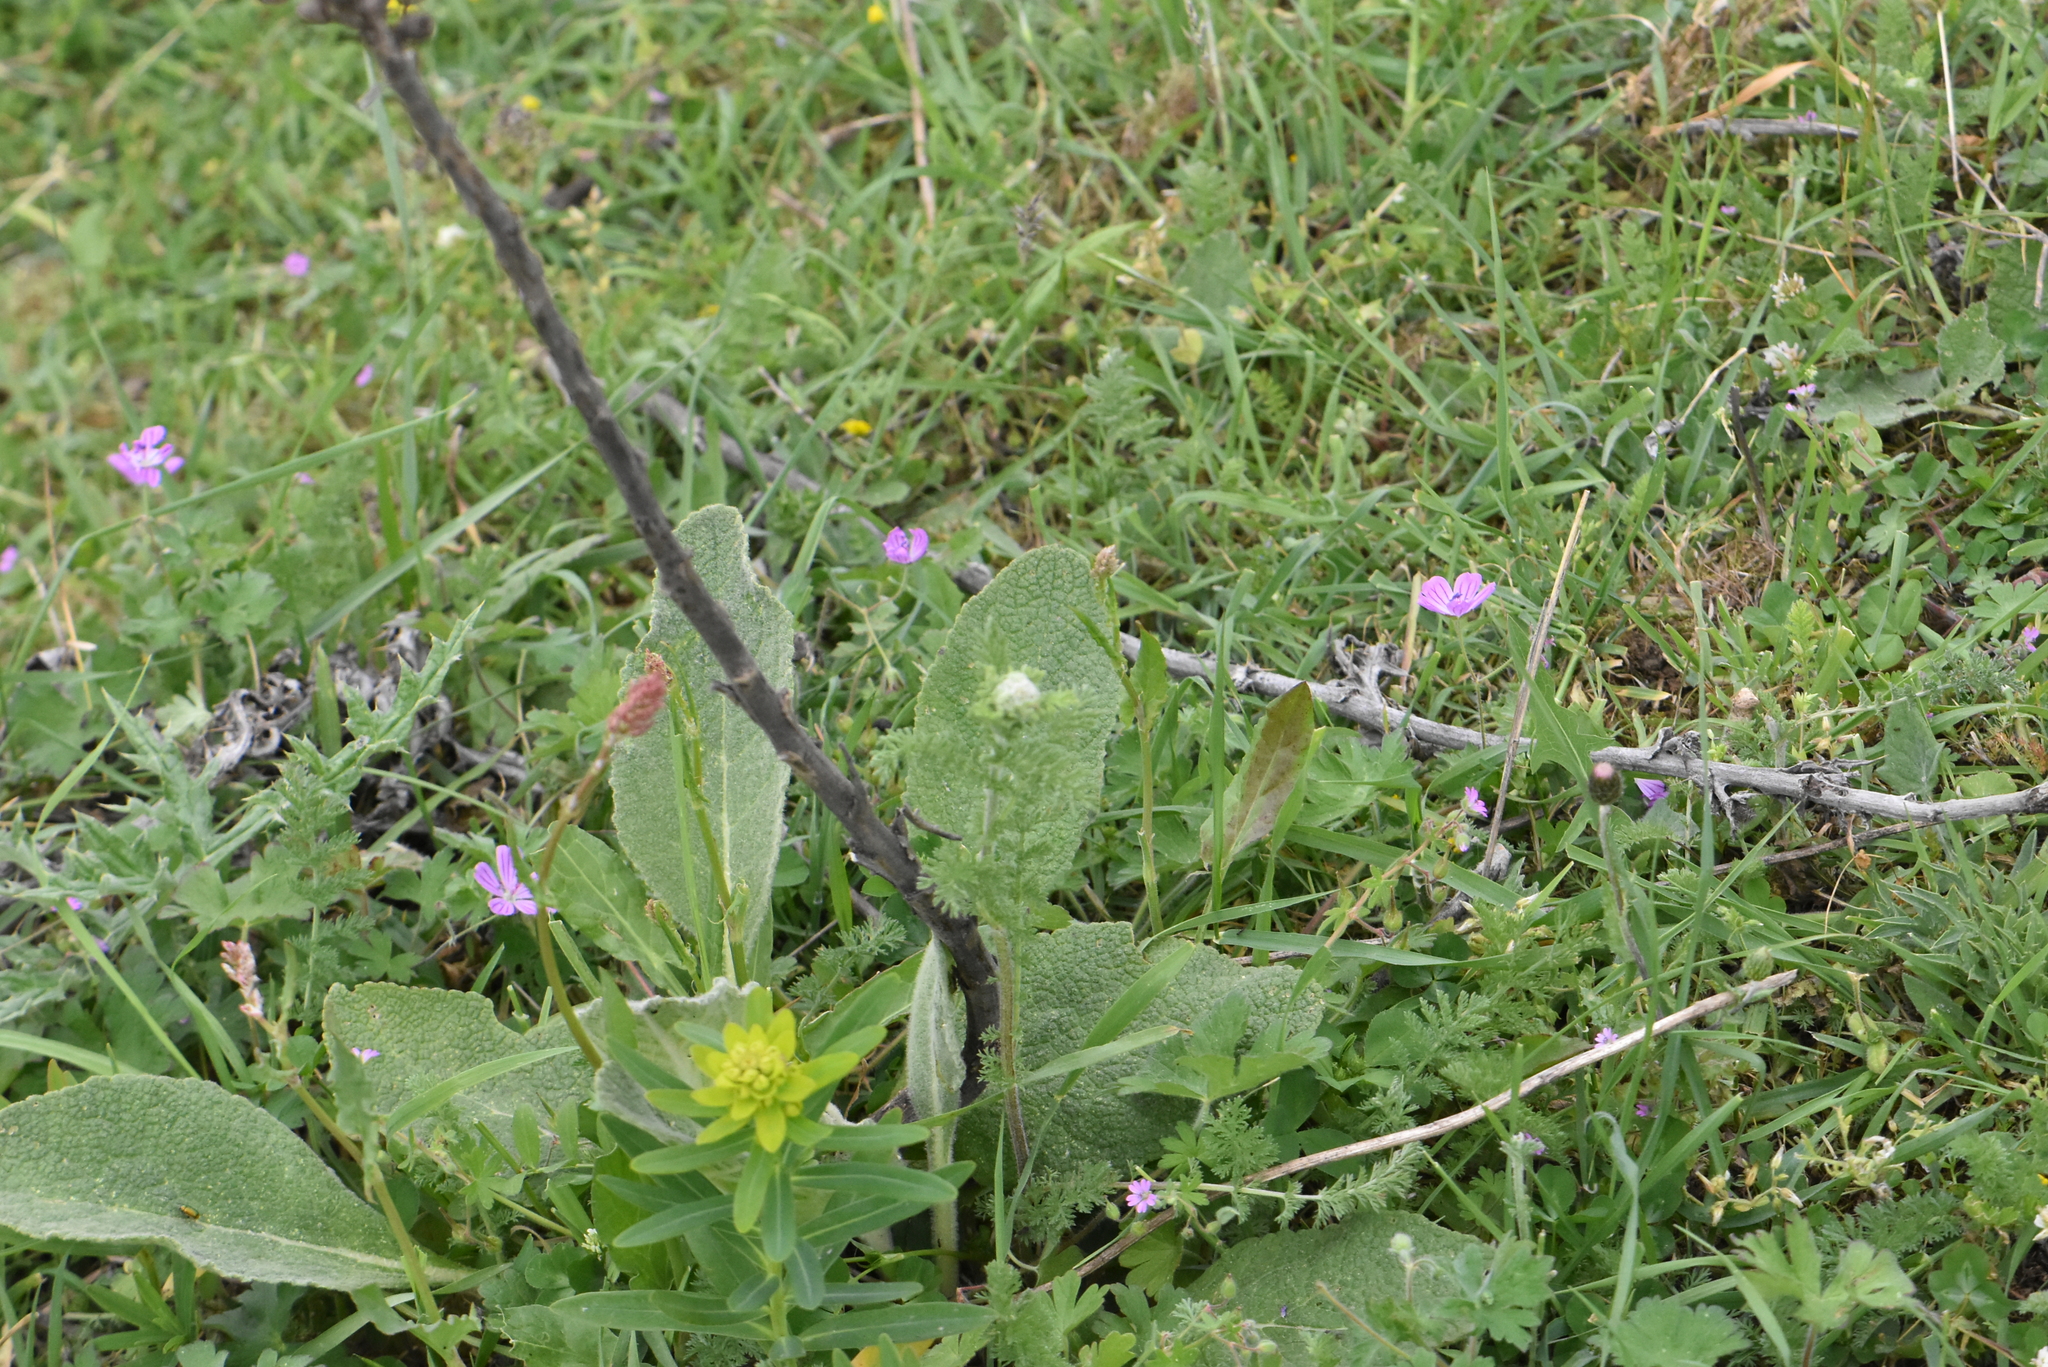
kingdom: Plantae
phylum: Tracheophyta
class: Magnoliopsida
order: Lamiales
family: Scrophulariaceae
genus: Verbascum
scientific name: Verbascum thapsus
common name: Common mullein
